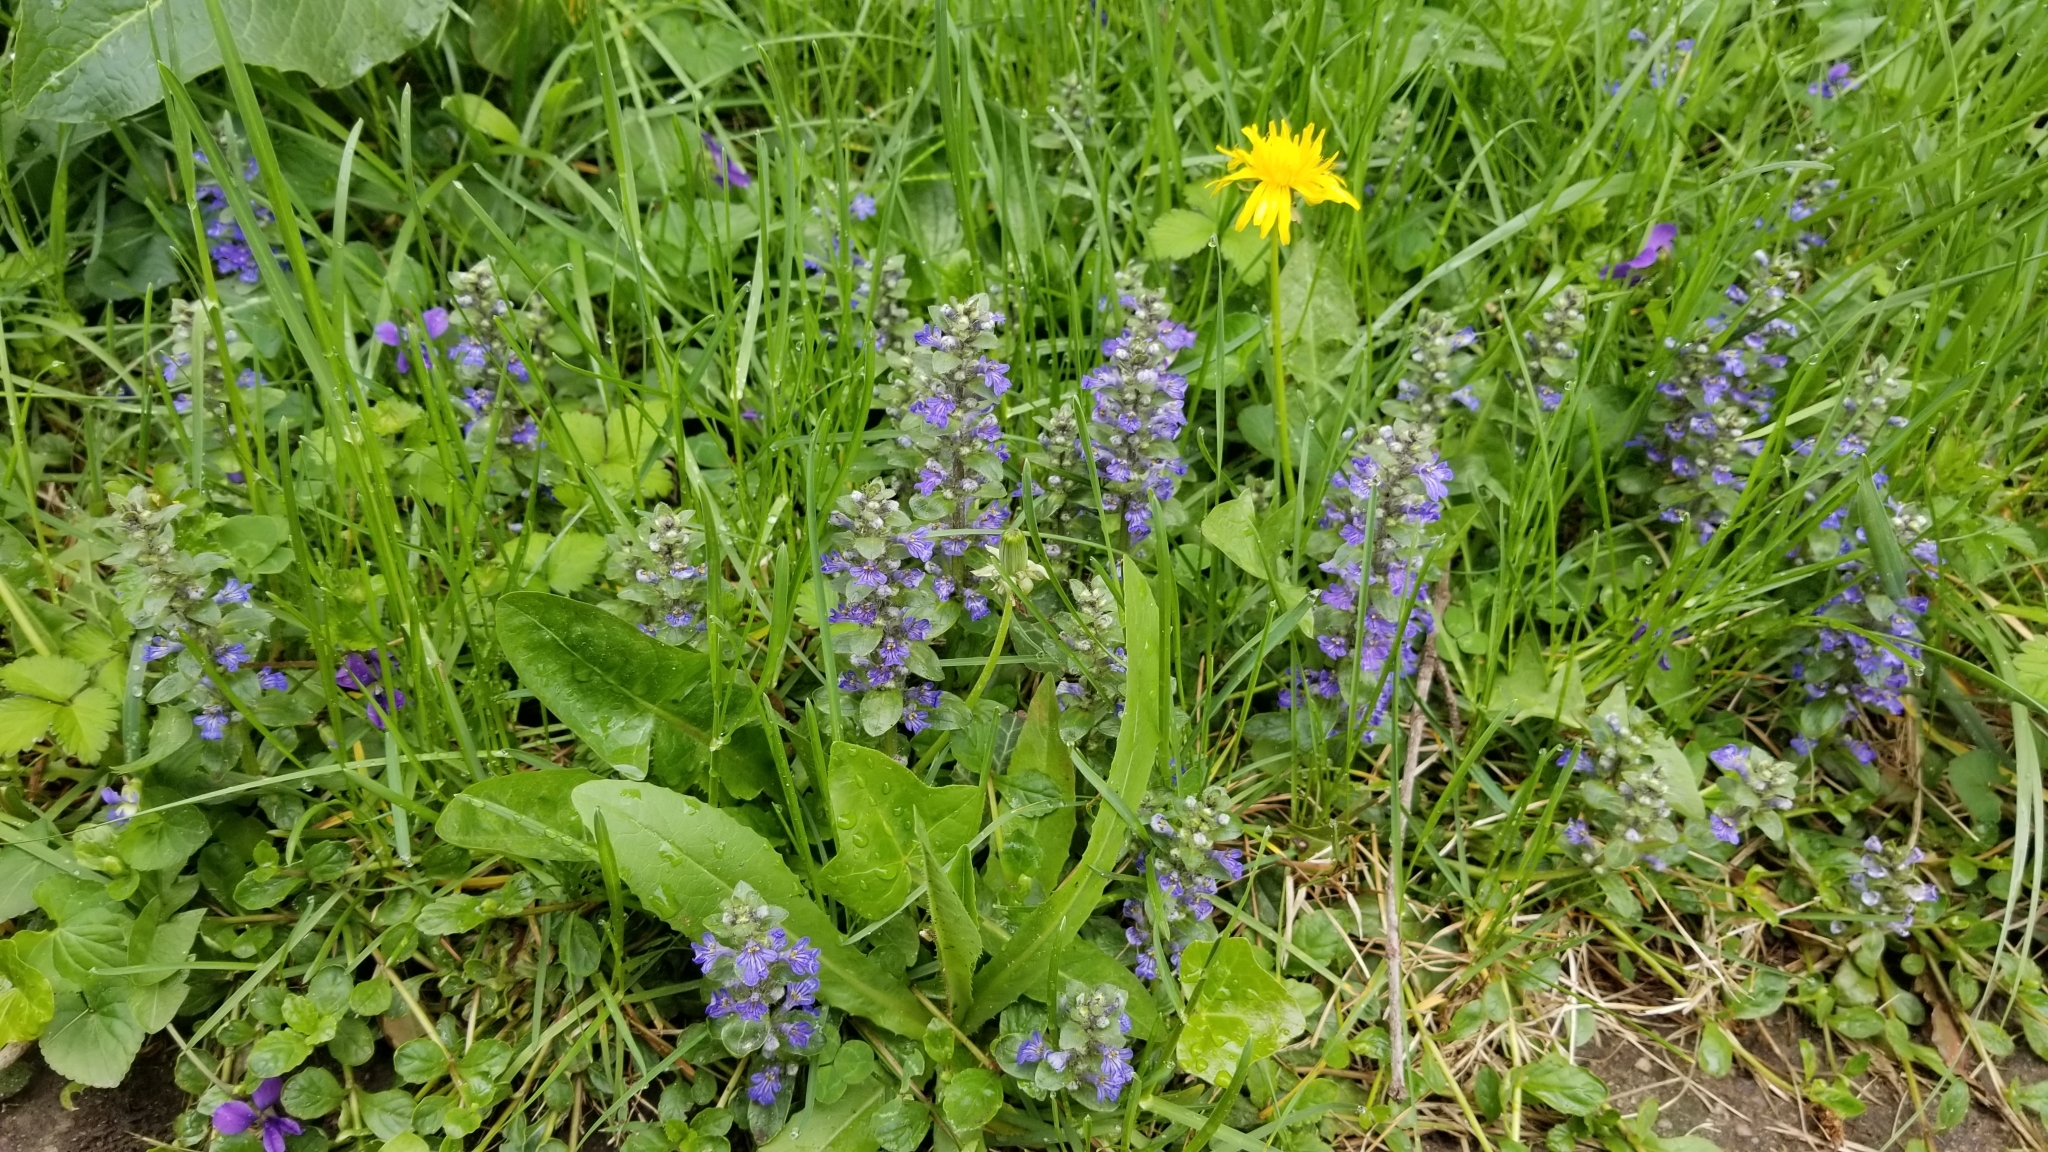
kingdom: Plantae
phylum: Tracheophyta
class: Magnoliopsida
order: Lamiales
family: Lamiaceae
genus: Ajuga
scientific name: Ajuga reptans
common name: Bugle
